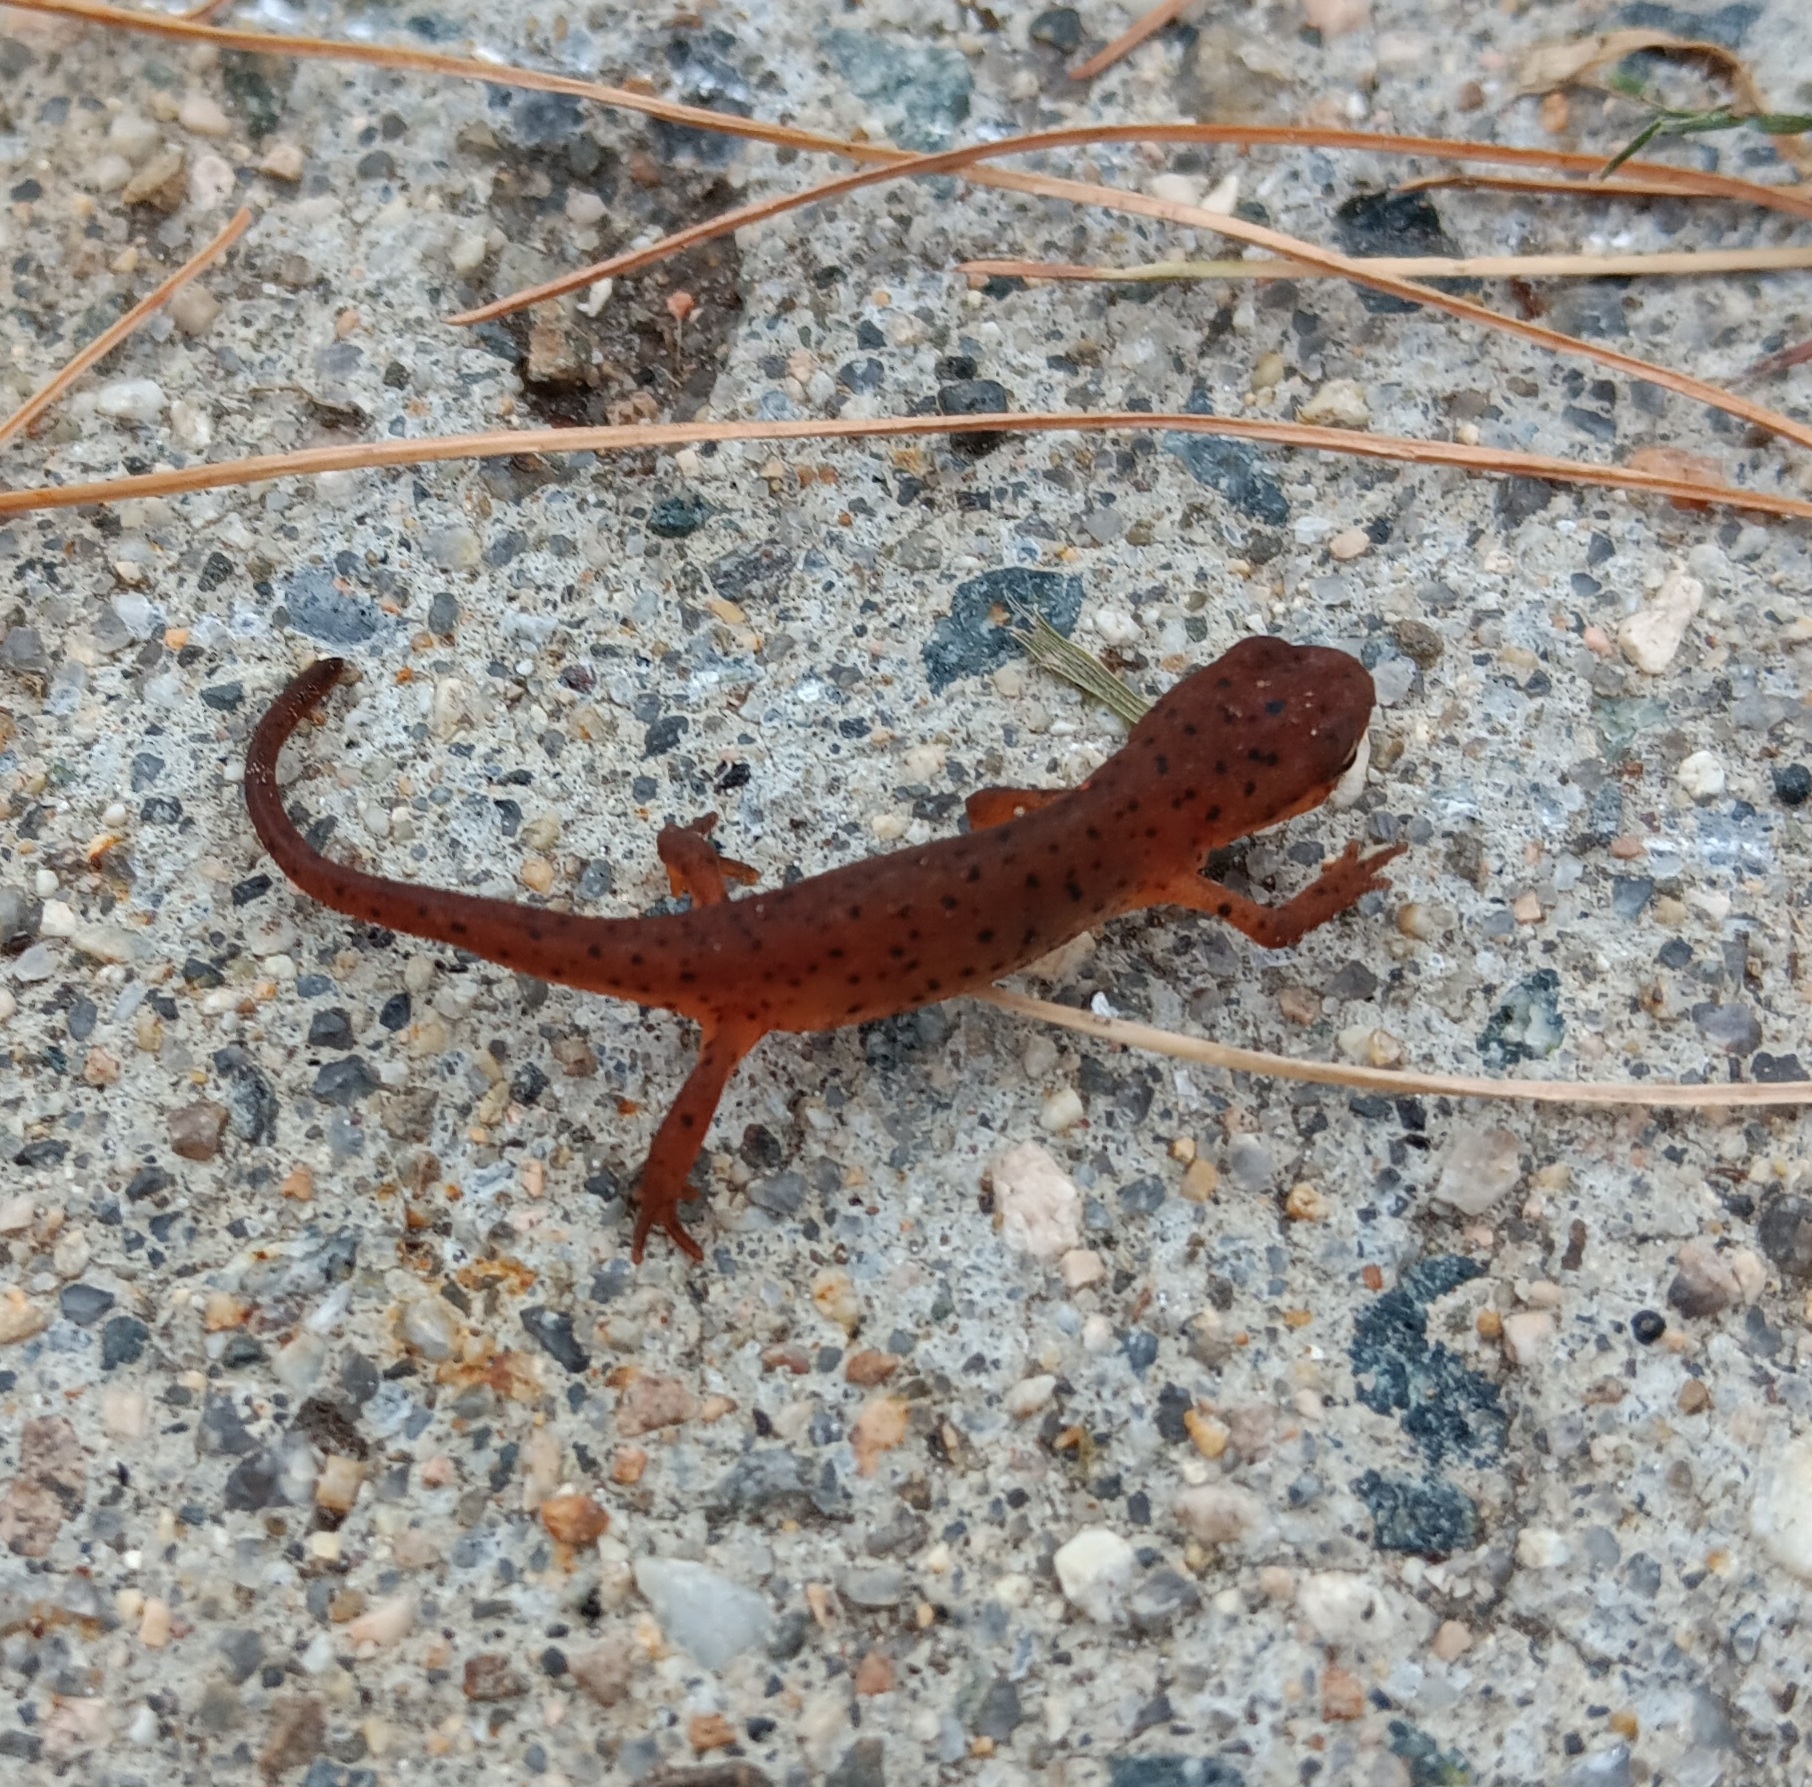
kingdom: Animalia
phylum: Chordata
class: Amphibia
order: Caudata
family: Salamandridae
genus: Notophthalmus
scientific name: Notophthalmus viridescens
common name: Eastern newt
